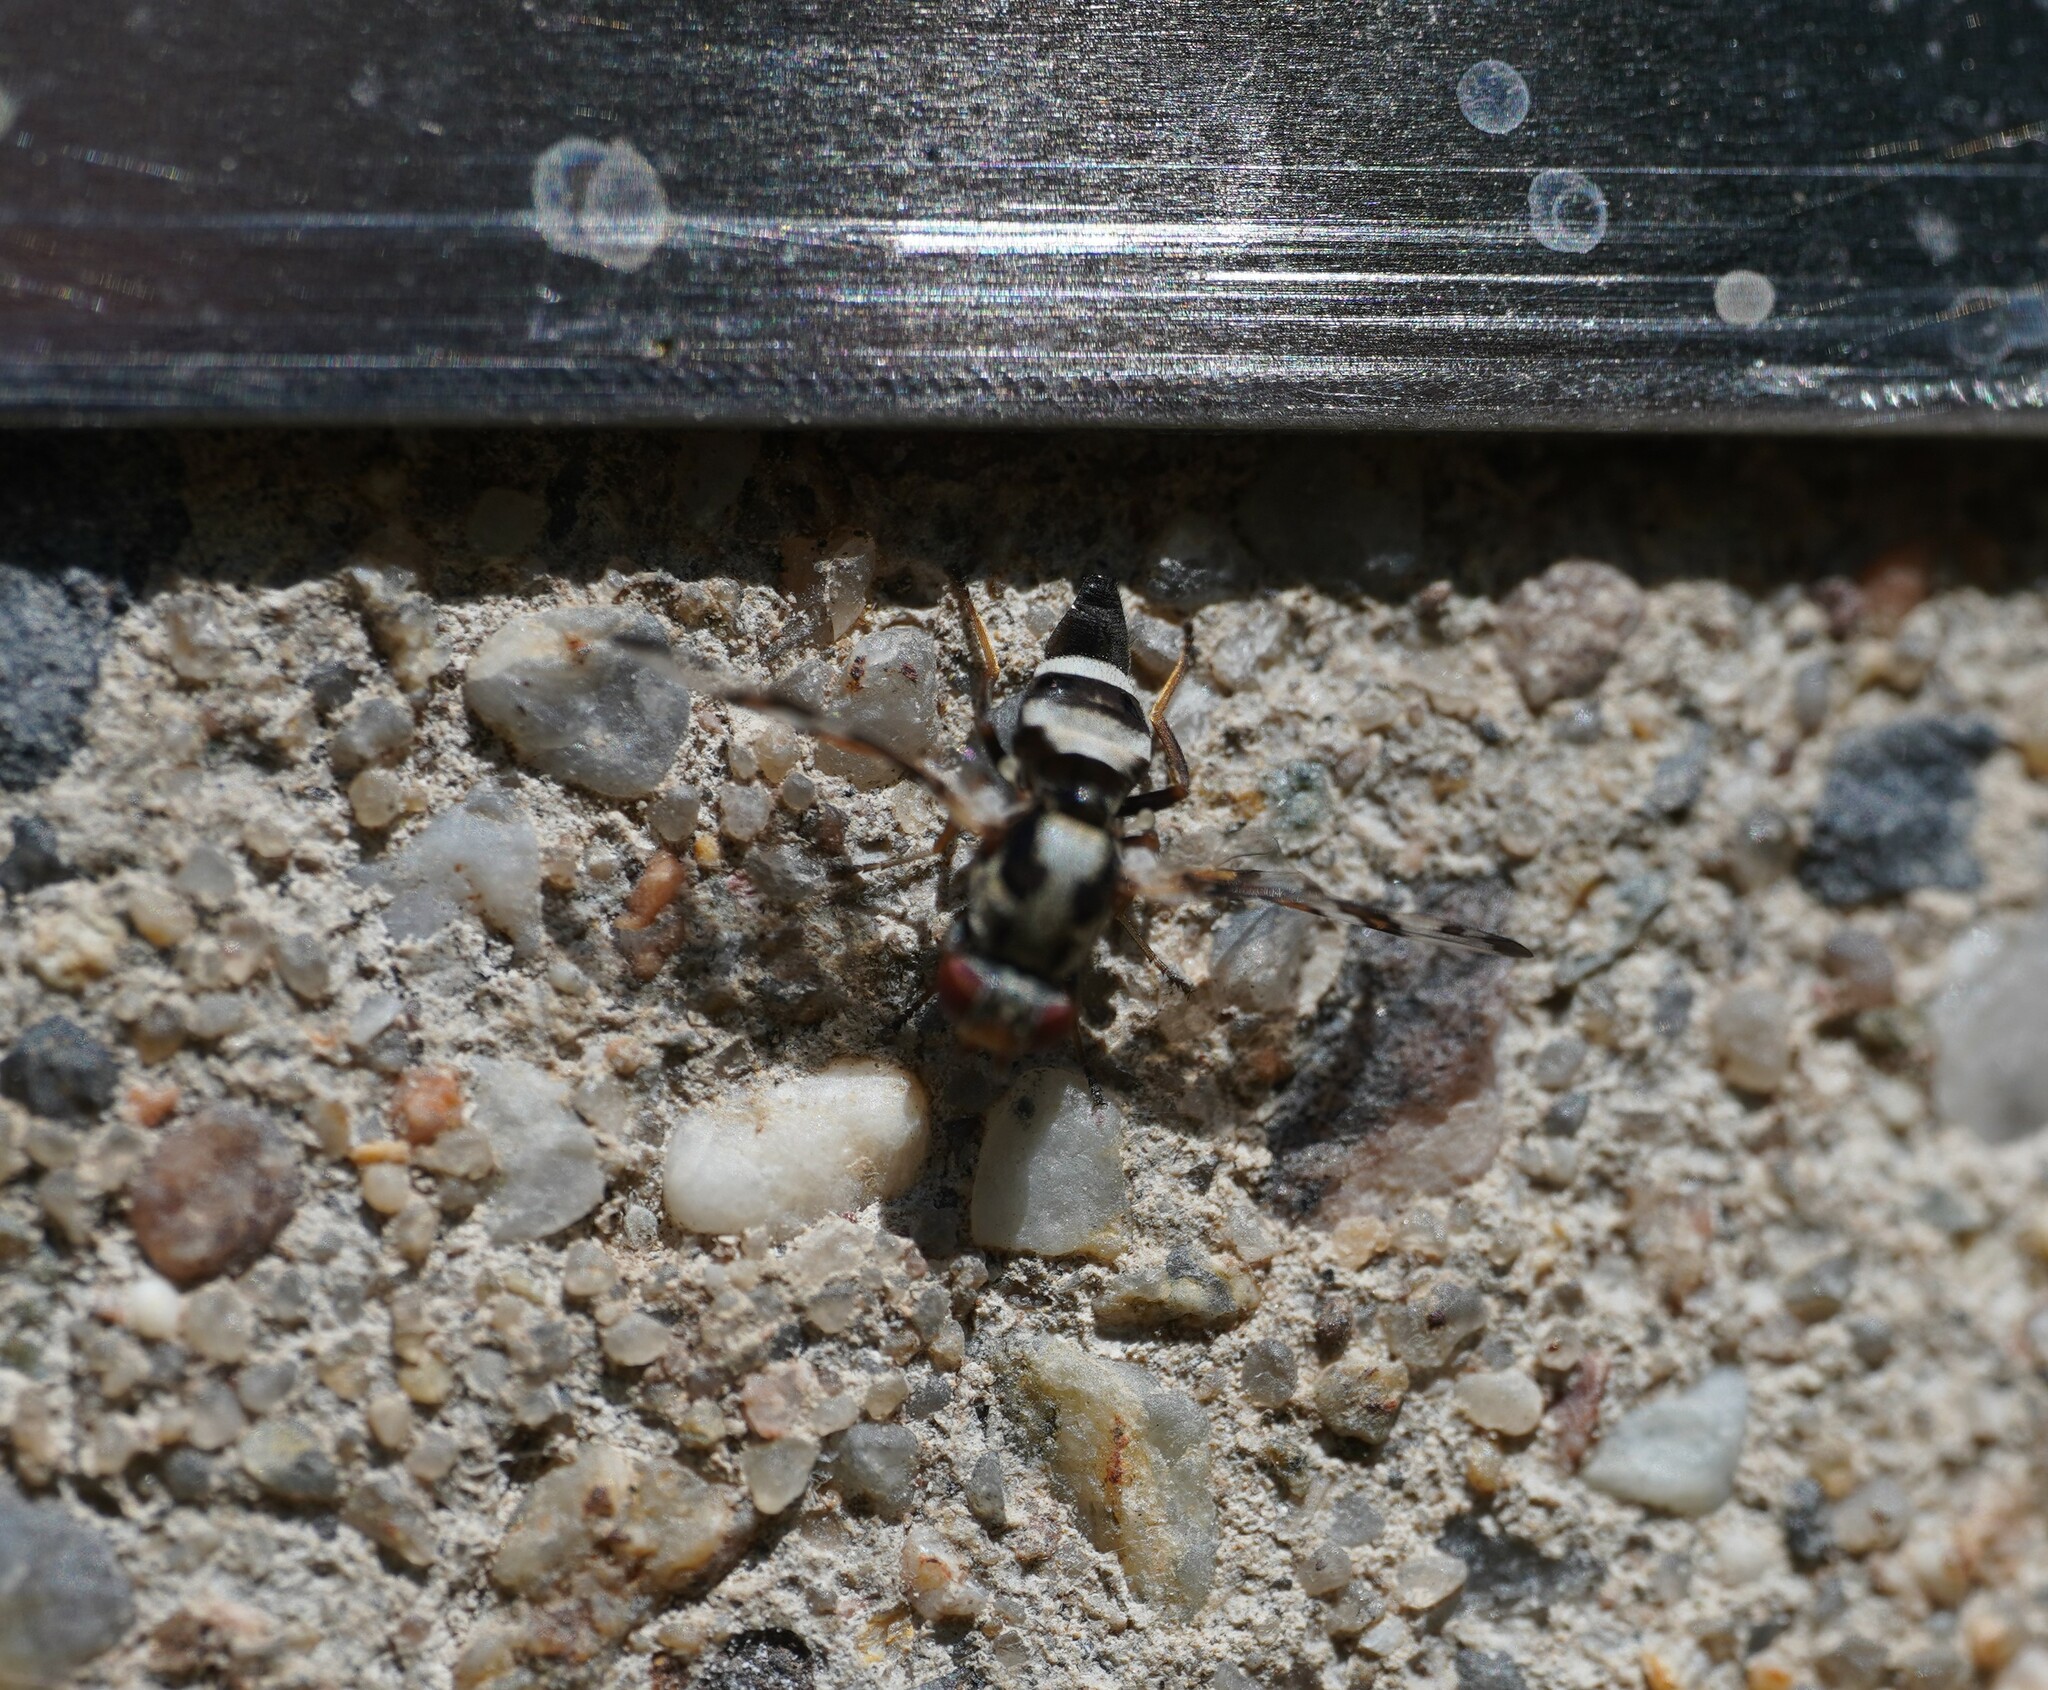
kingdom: Animalia
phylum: Arthropoda
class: Insecta
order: Diptera
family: Ulidiidae
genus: Myennis
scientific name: Myennis octopunctata
